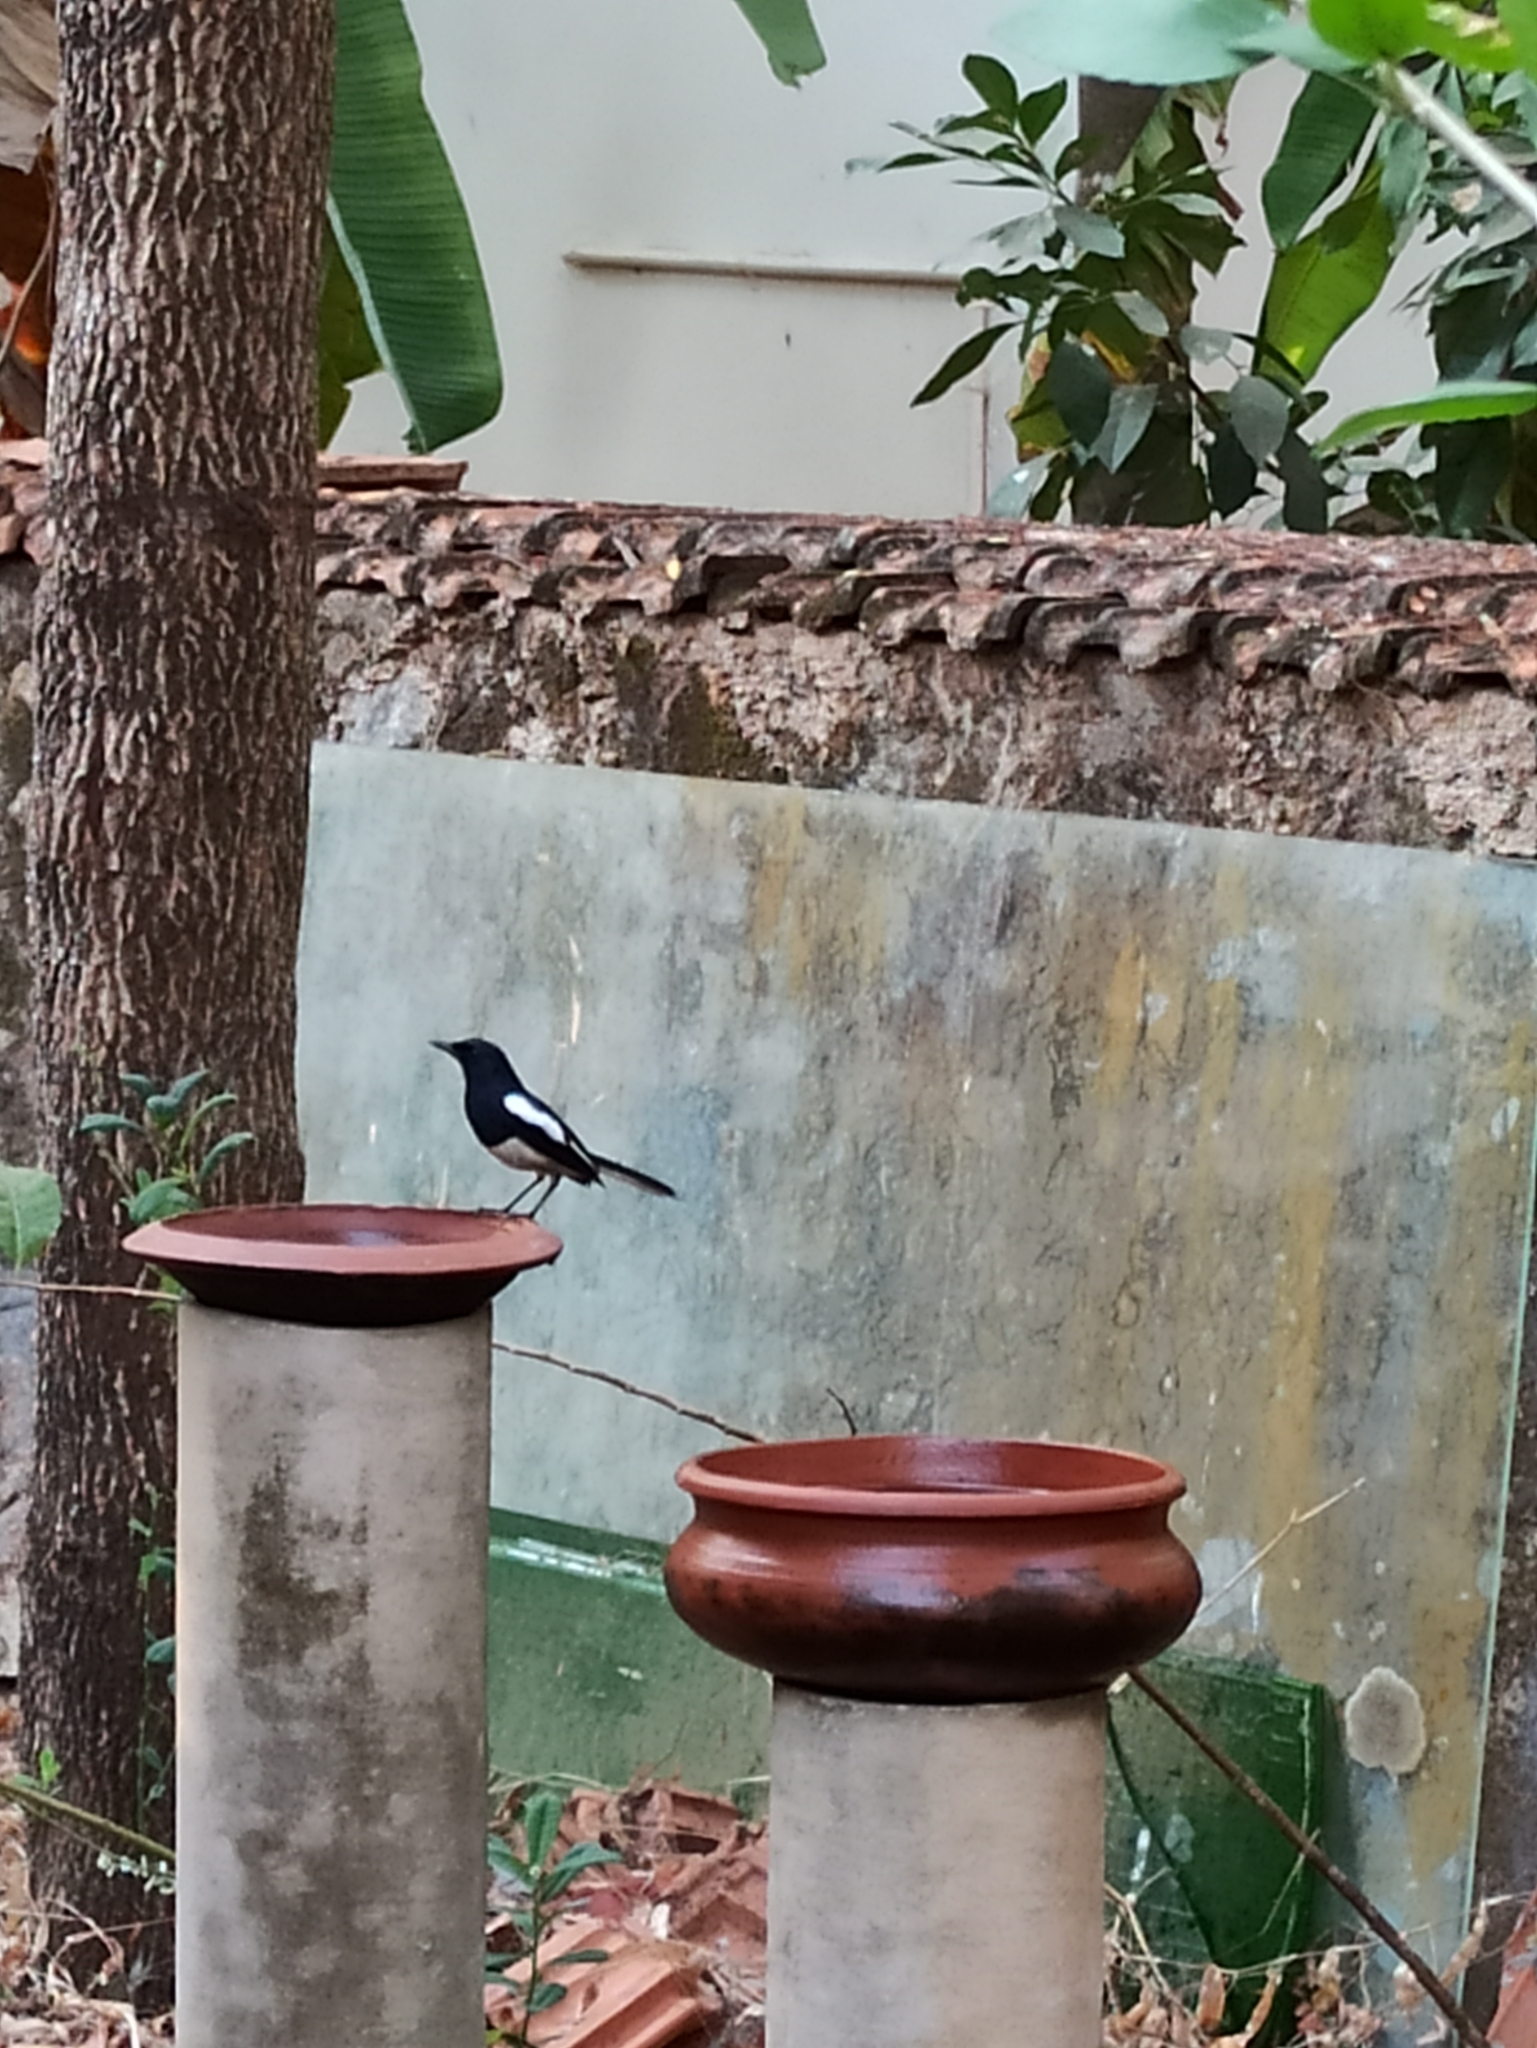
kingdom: Animalia
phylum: Chordata
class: Aves
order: Passeriformes
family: Muscicapidae
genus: Copsychus
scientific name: Copsychus saularis
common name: Oriental magpie-robin
